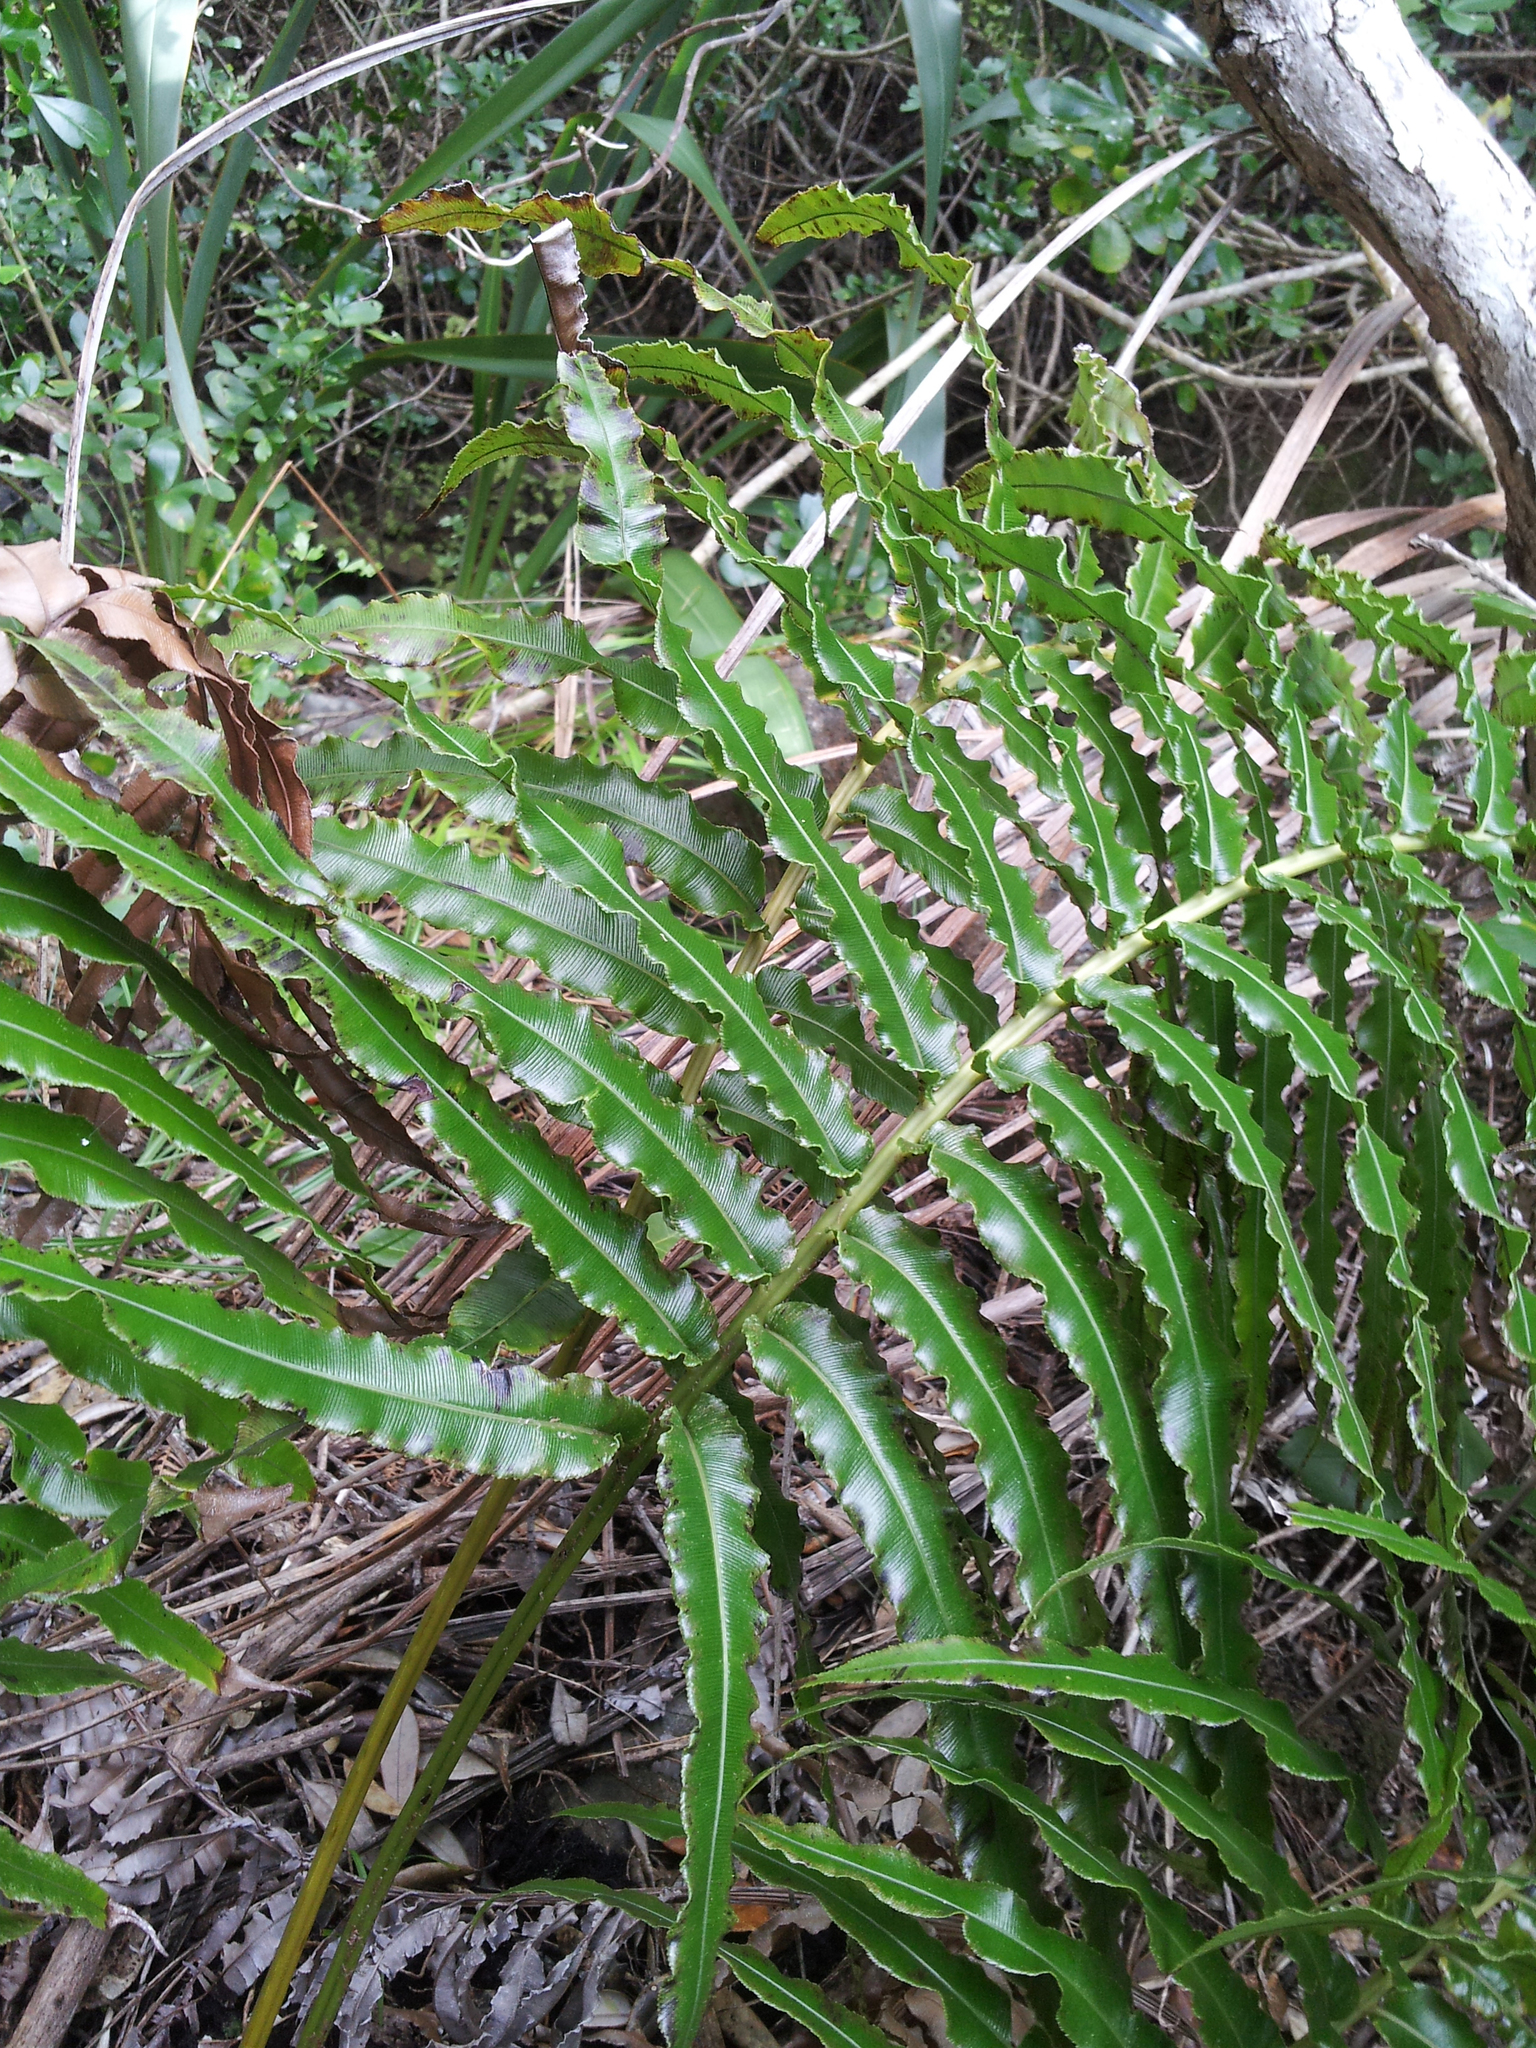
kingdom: Plantae
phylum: Tracheophyta
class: Polypodiopsida
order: Polypodiales
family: Blechnaceae
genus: Parablechnum
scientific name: Parablechnum triangularifolium
